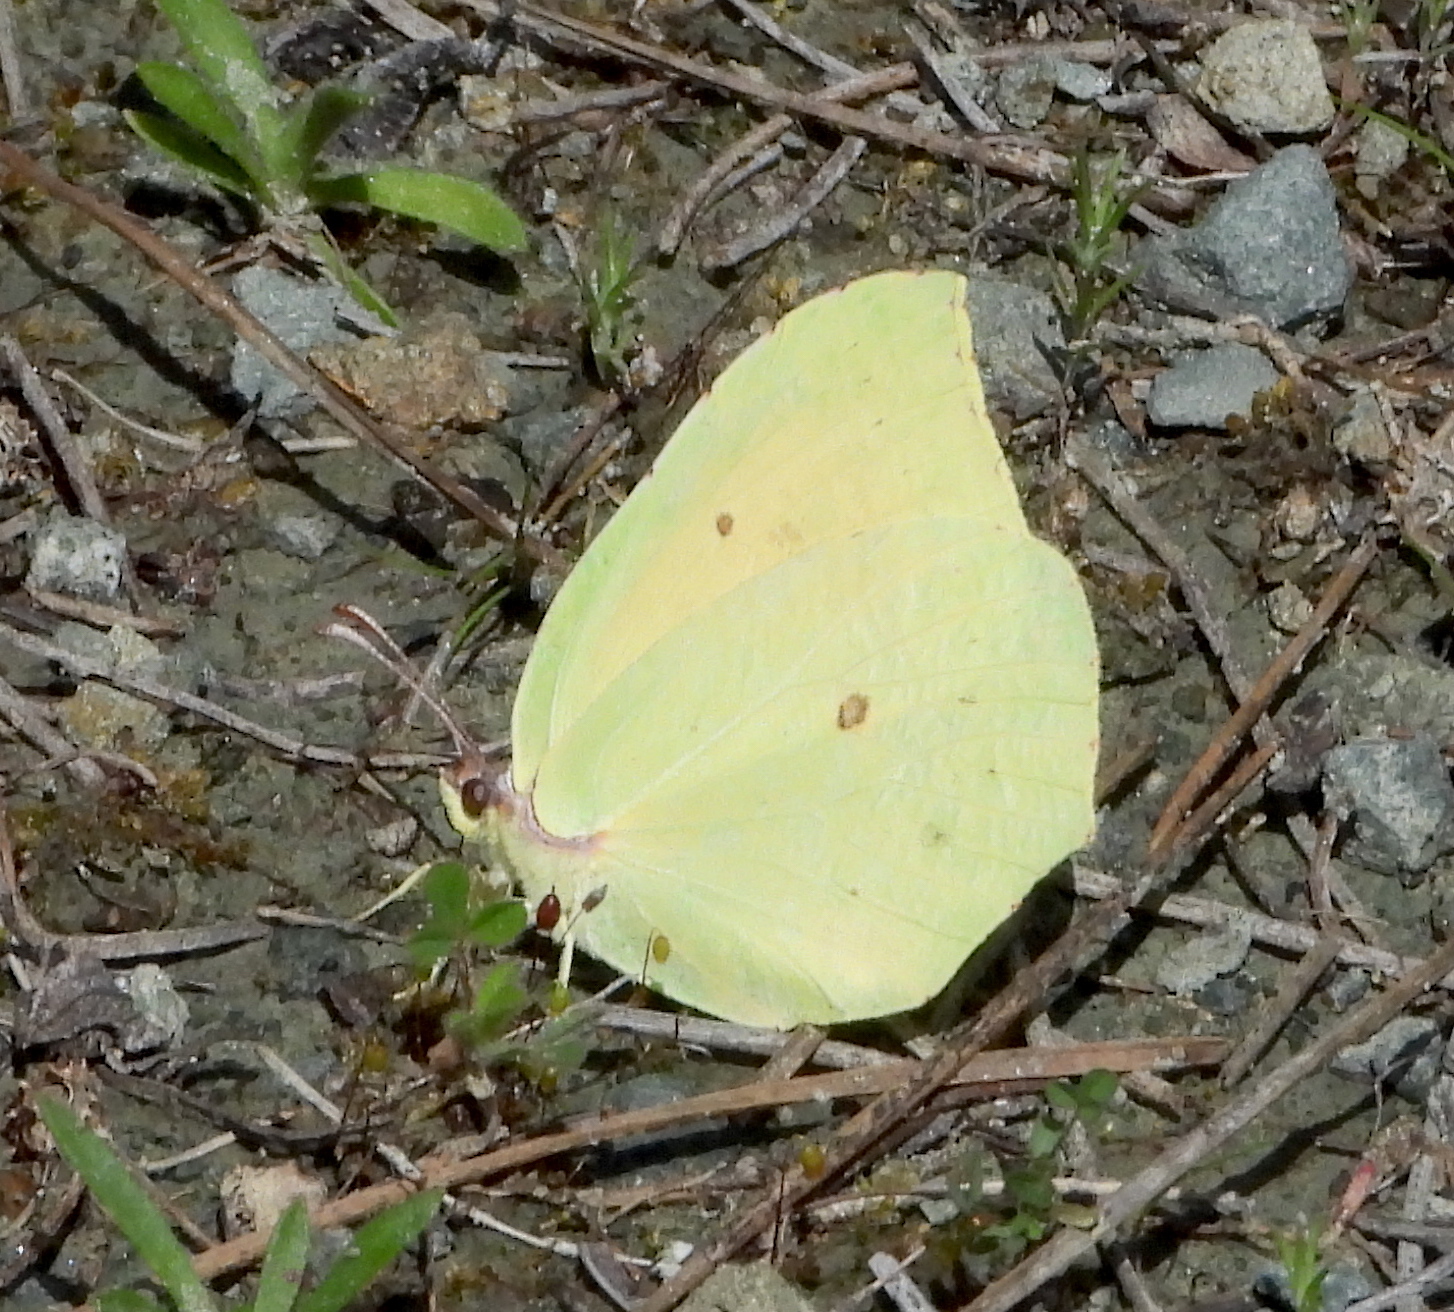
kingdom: Animalia
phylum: Arthropoda
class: Insecta
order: Lepidoptera
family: Pieridae
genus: Gonepteryx
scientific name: Gonepteryx cleopatra
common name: Cleopatra
